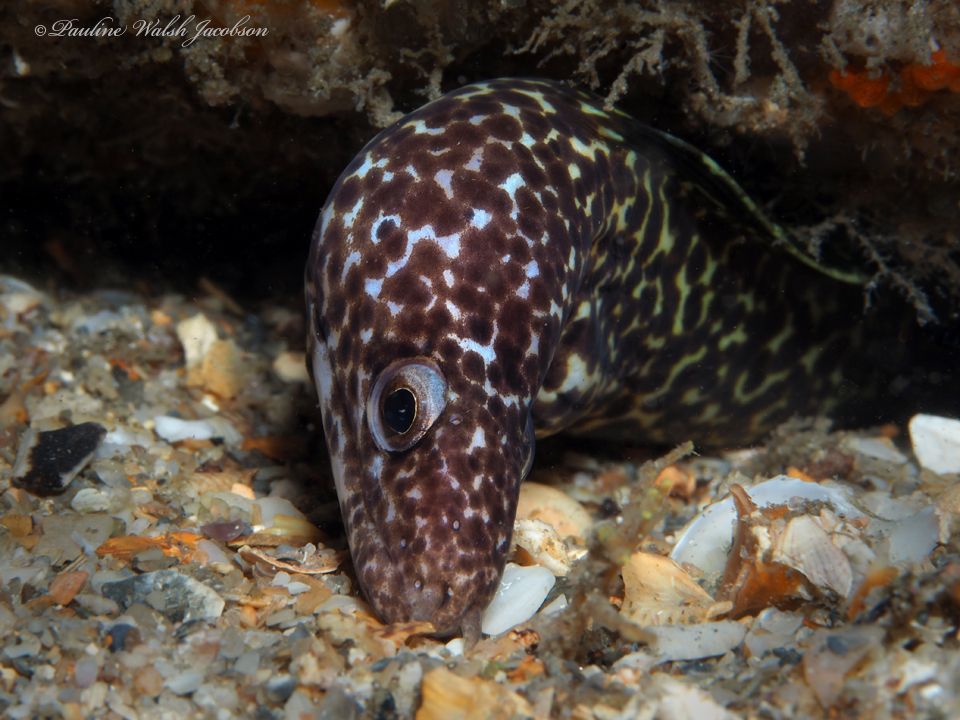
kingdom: Animalia
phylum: Chordata
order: Anguilliformes
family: Muraenidae
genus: Gymnothorax
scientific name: Gymnothorax moringa
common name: Spotted moray
